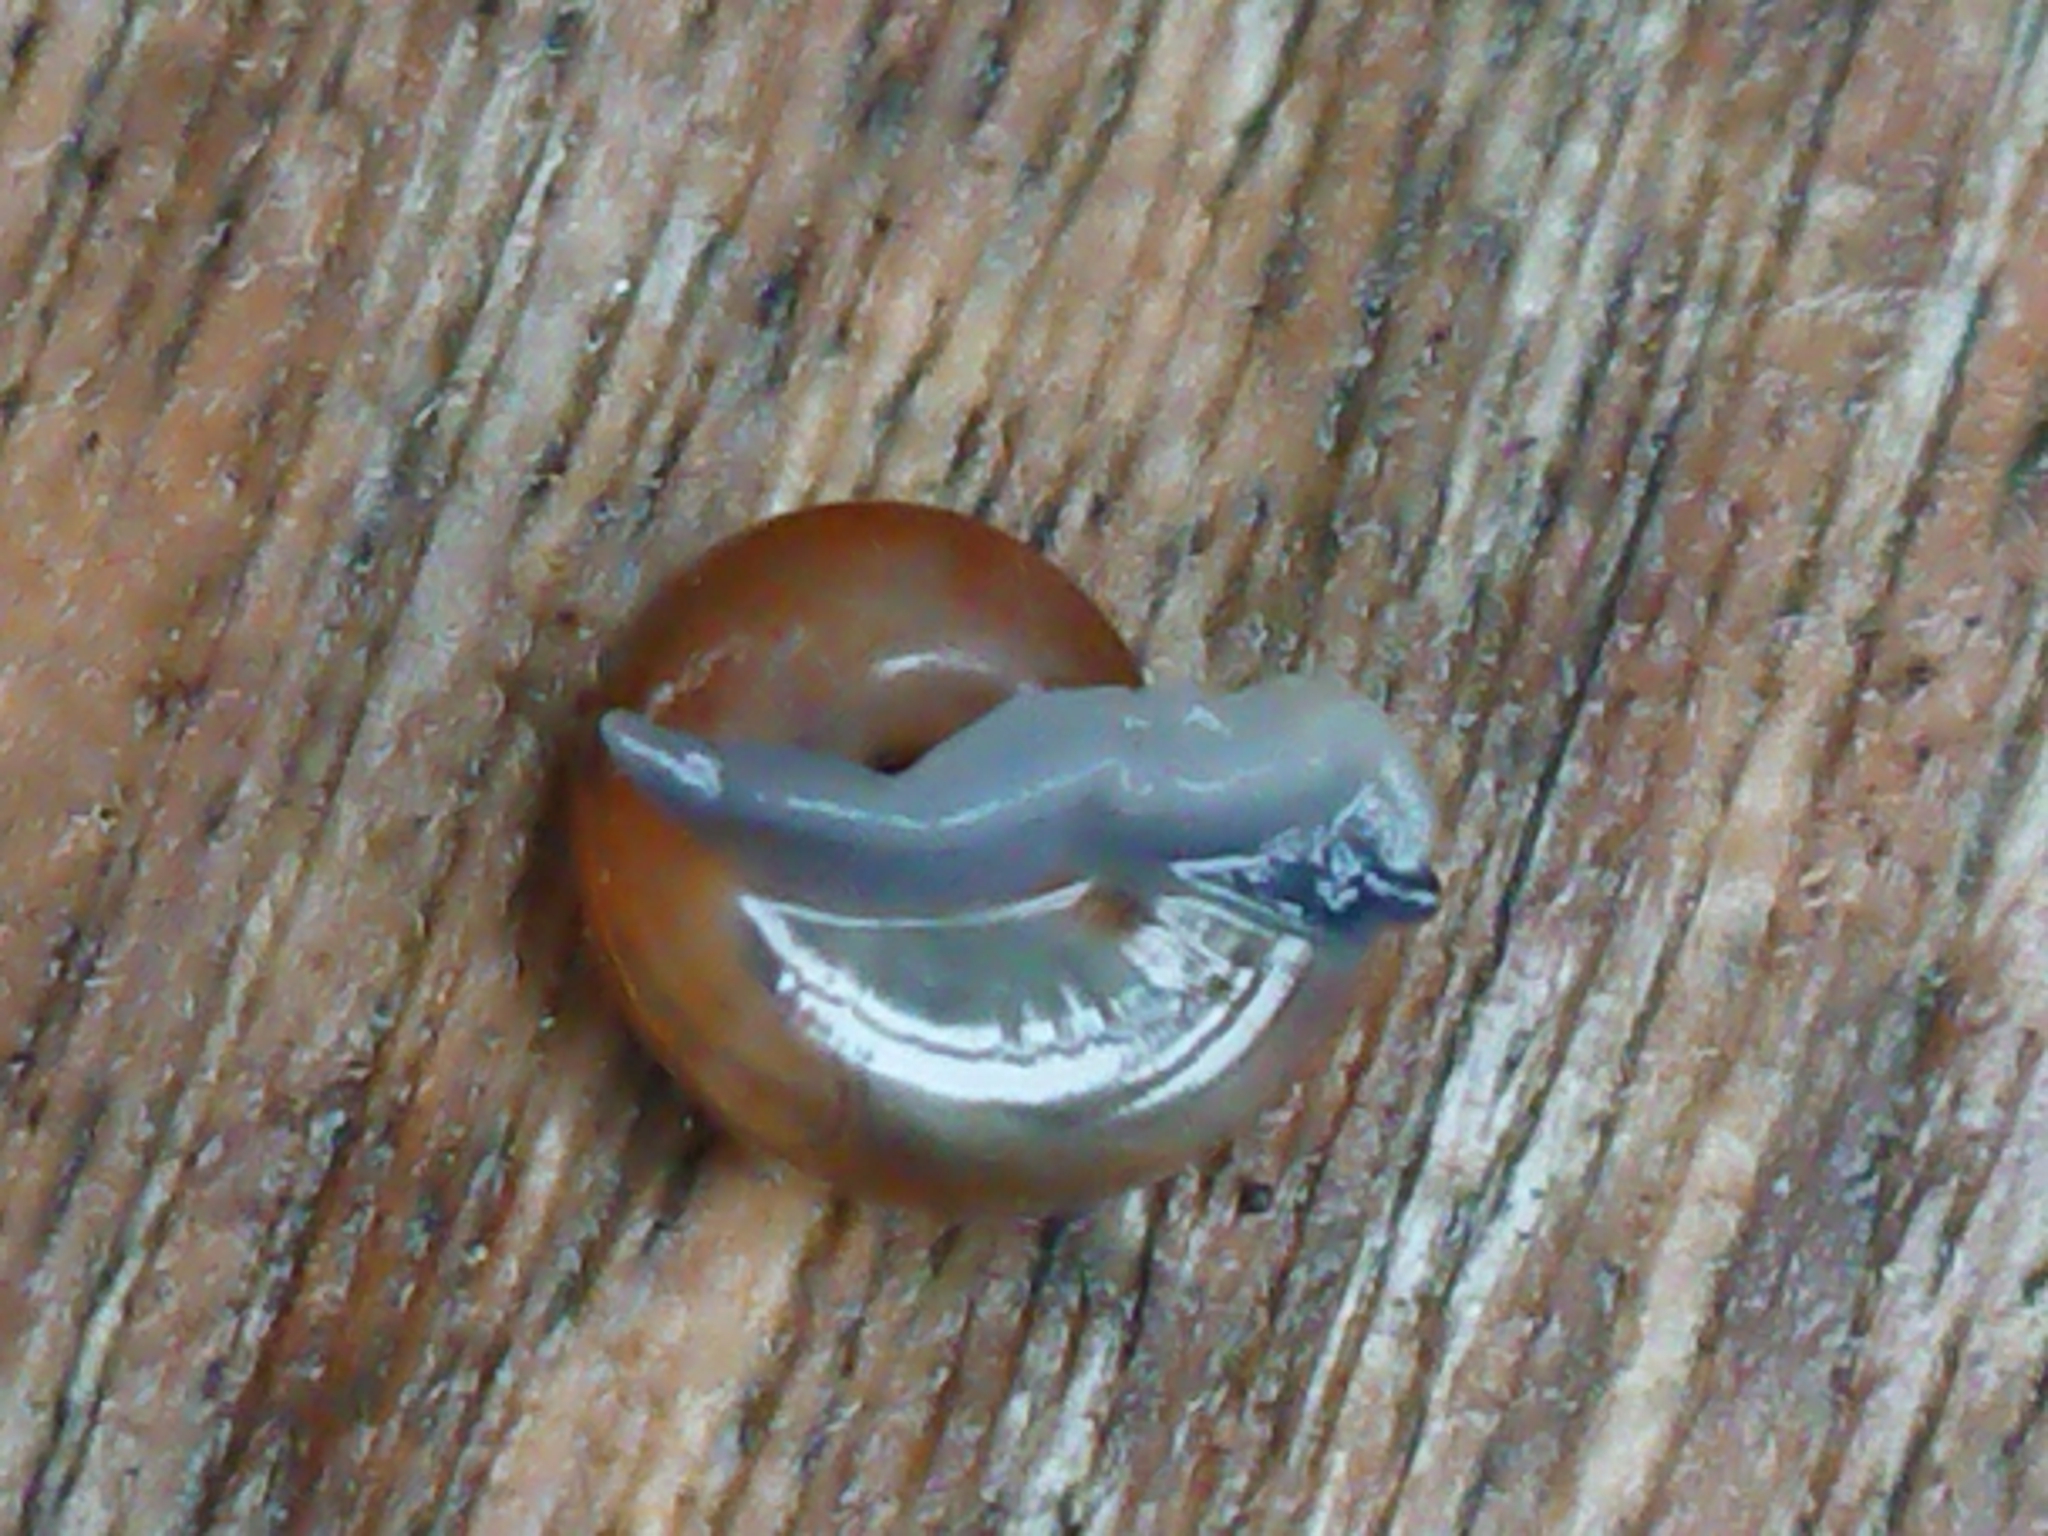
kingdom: Animalia
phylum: Mollusca
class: Gastropoda
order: Stylommatophora
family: Oxychilidae
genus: Oxychilus
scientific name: Oxychilus
